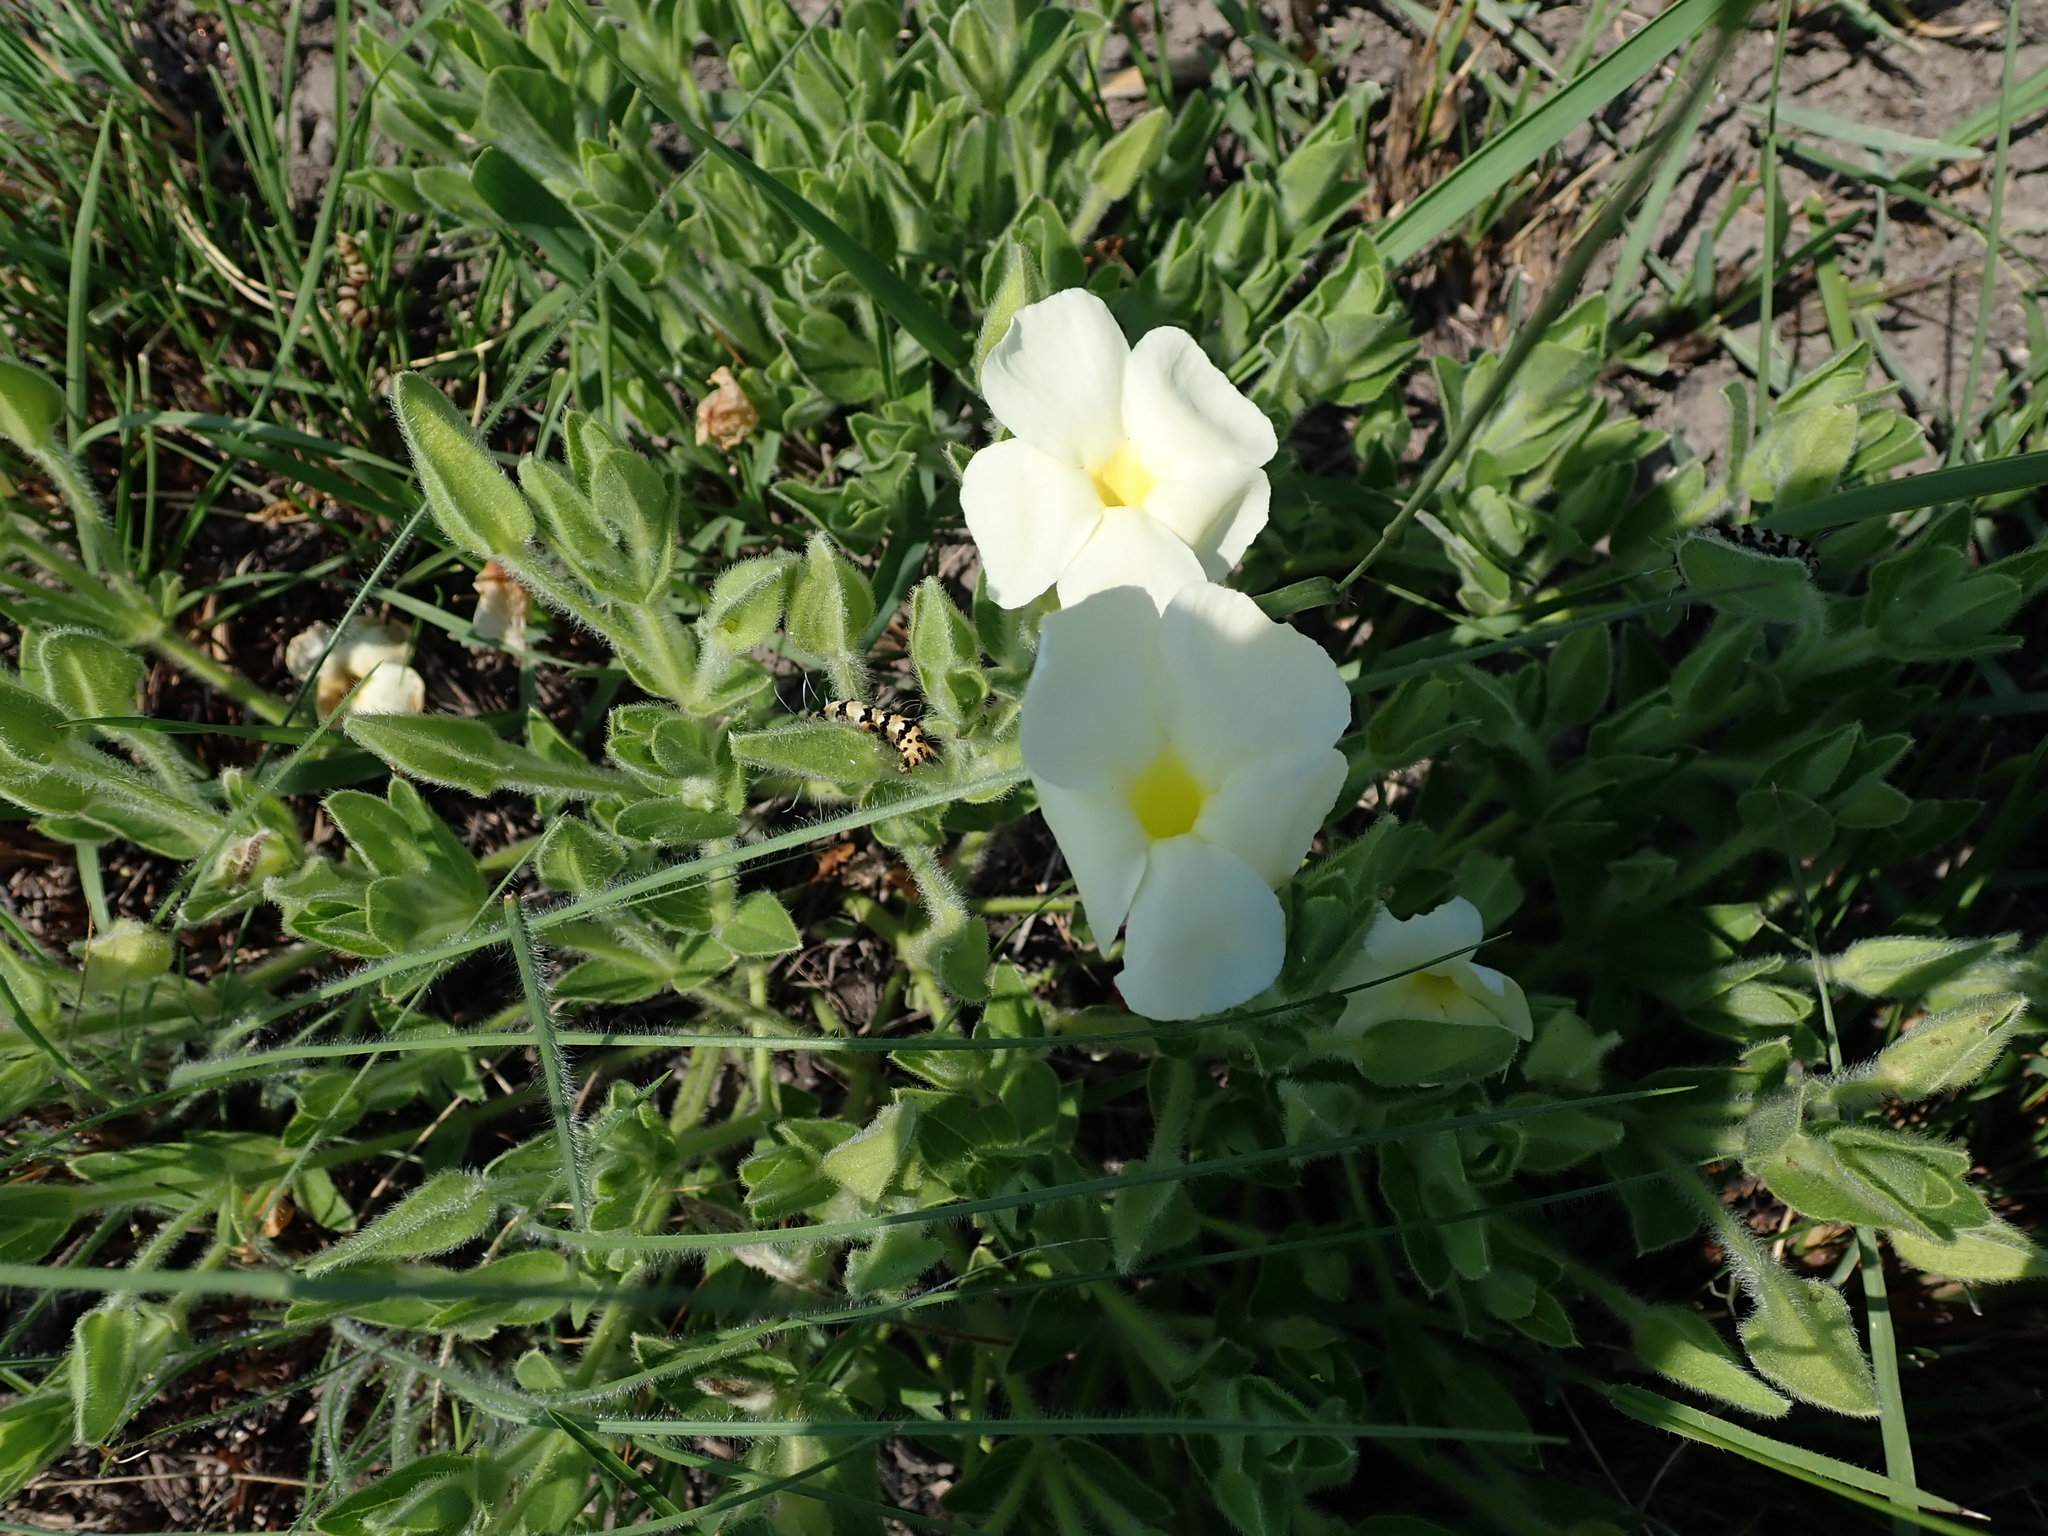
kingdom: Plantae
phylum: Tracheophyta
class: Magnoliopsida
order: Lamiales
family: Acanthaceae
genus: Thunbergia
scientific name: Thunbergia atriplicifolia
